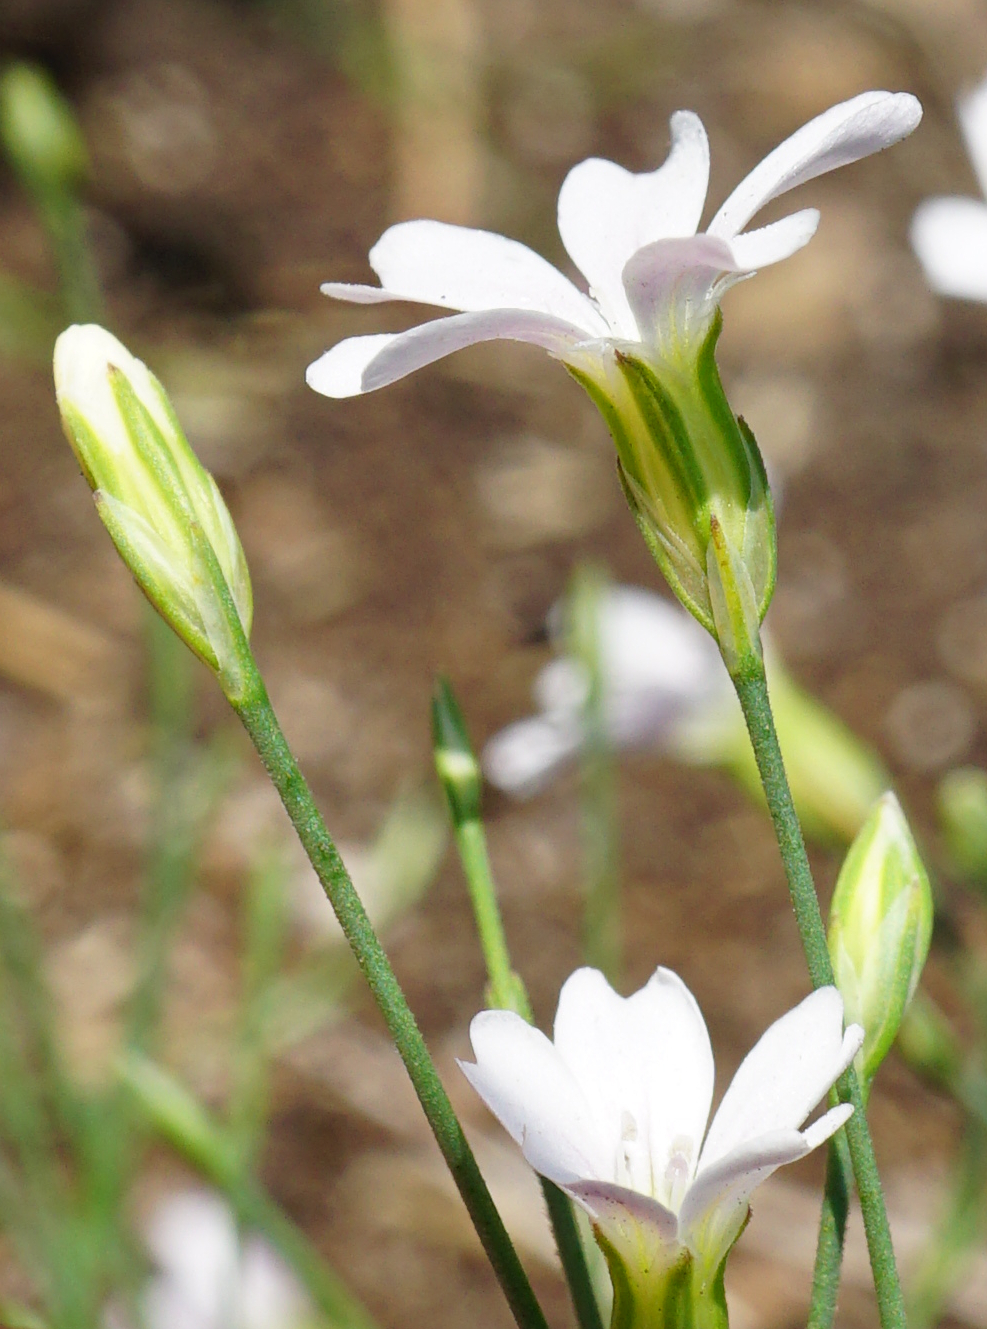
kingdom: Plantae
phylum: Tracheophyta
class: Magnoliopsida
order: Caryophyllales
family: Caryophyllaceae
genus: Petrorhagia
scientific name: Petrorhagia saxifraga
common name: Tunicflower
